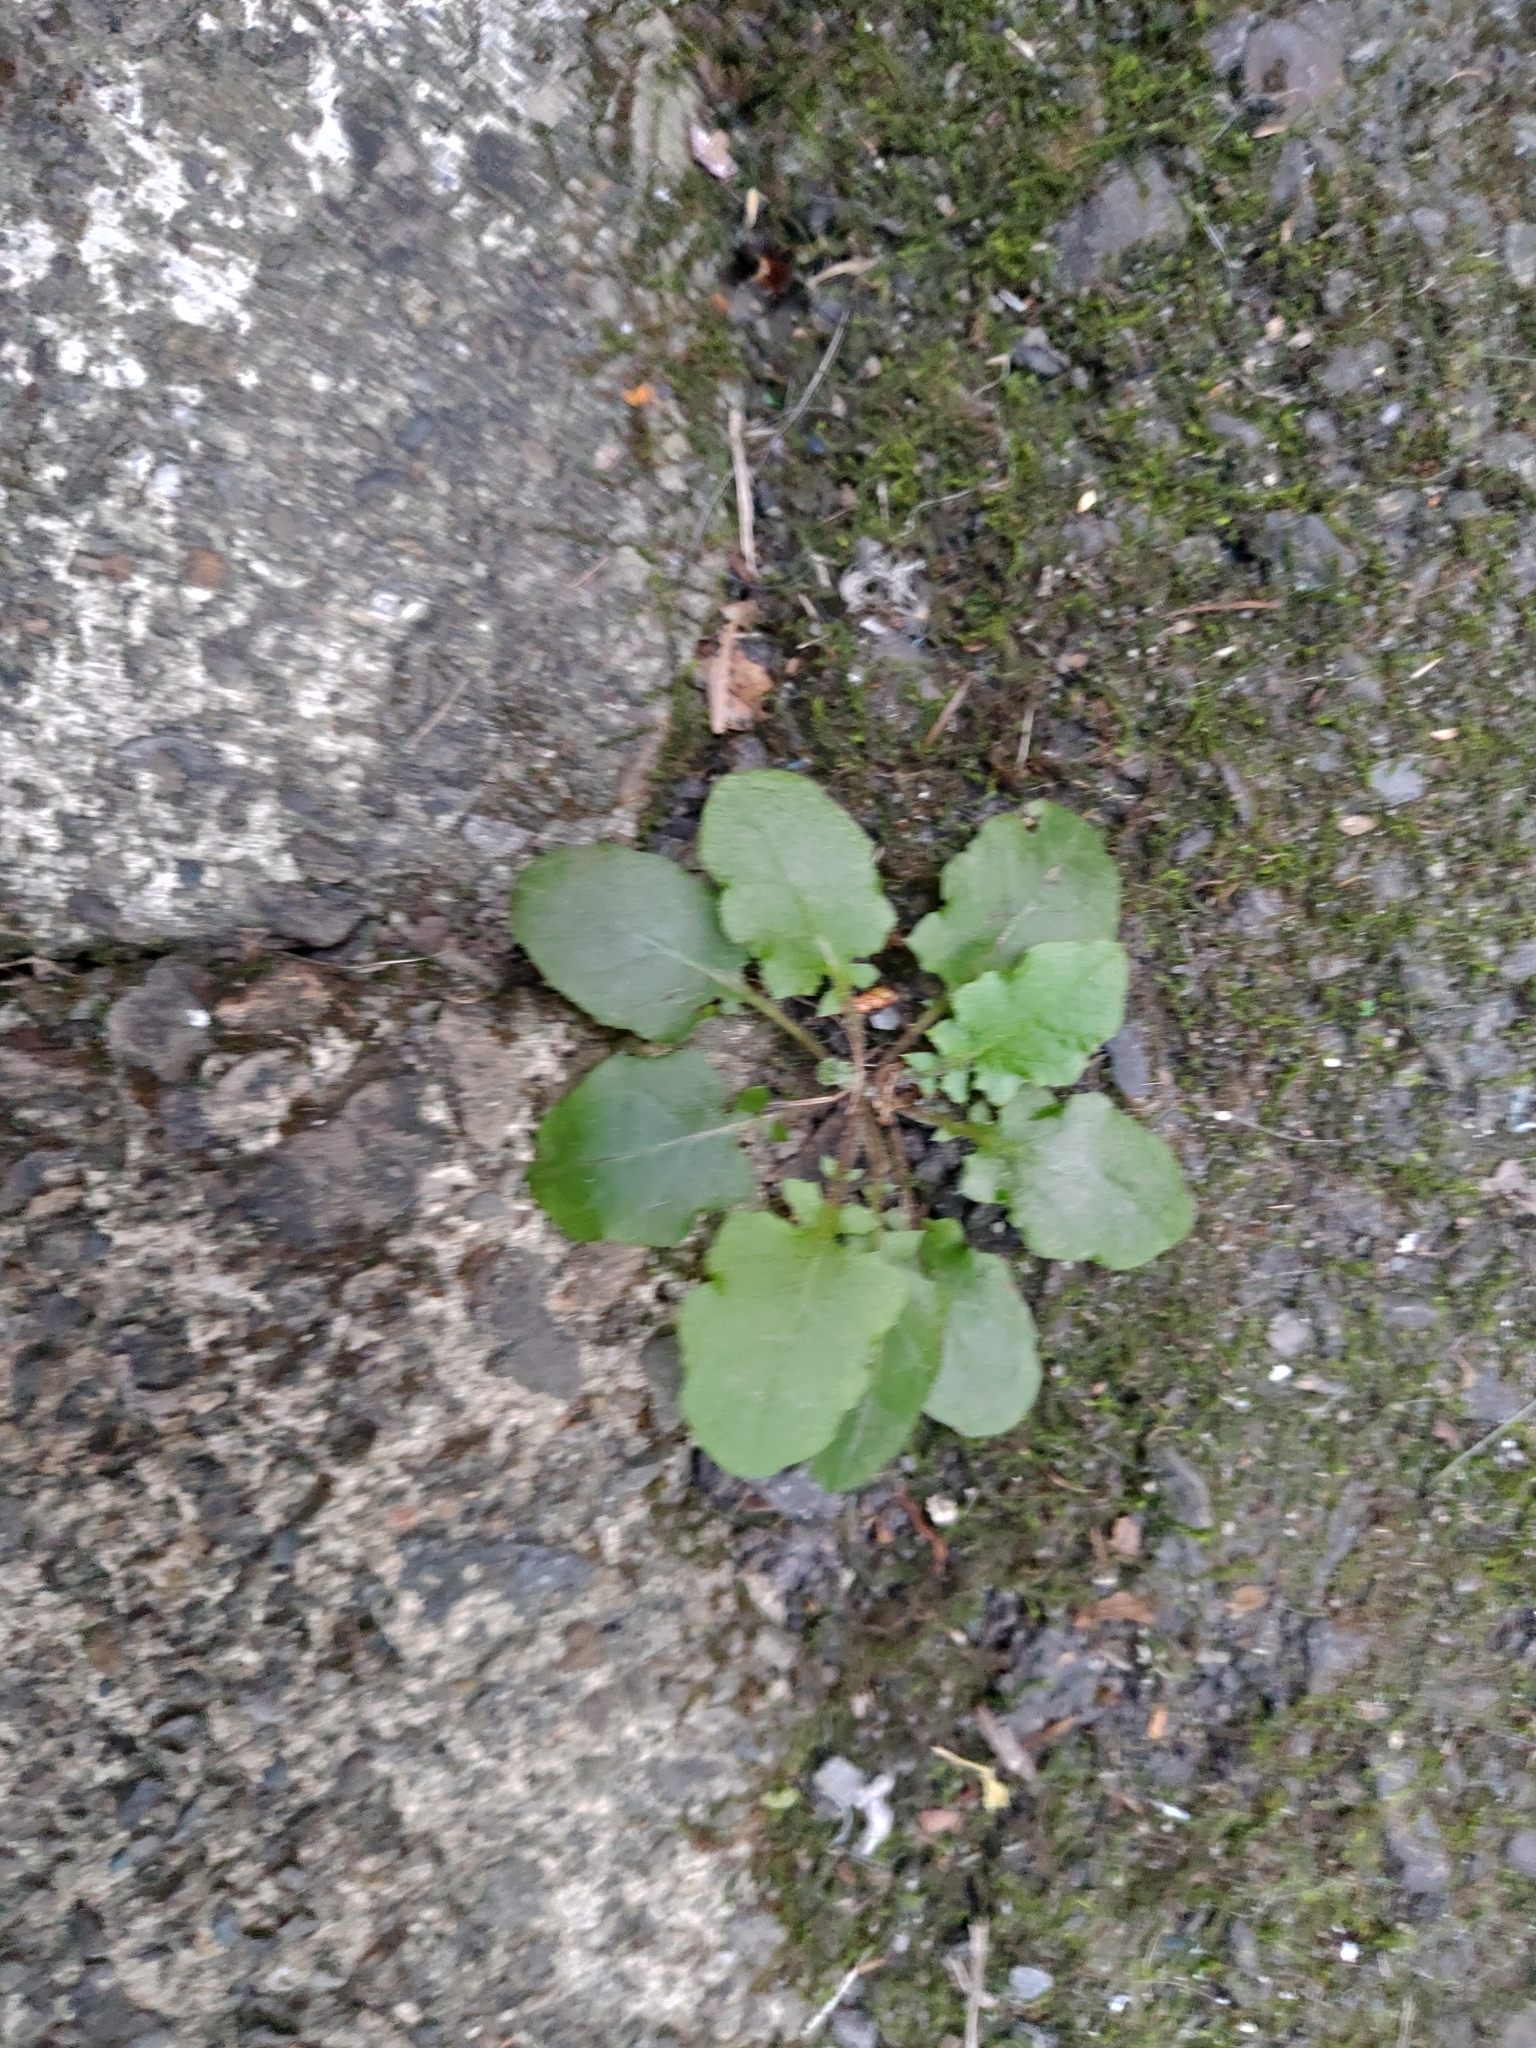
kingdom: Plantae
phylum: Tracheophyta
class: Magnoliopsida
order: Asterales
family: Asteraceae
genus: Youngia
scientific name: Youngia japonica
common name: Oriental false hawksbeard
